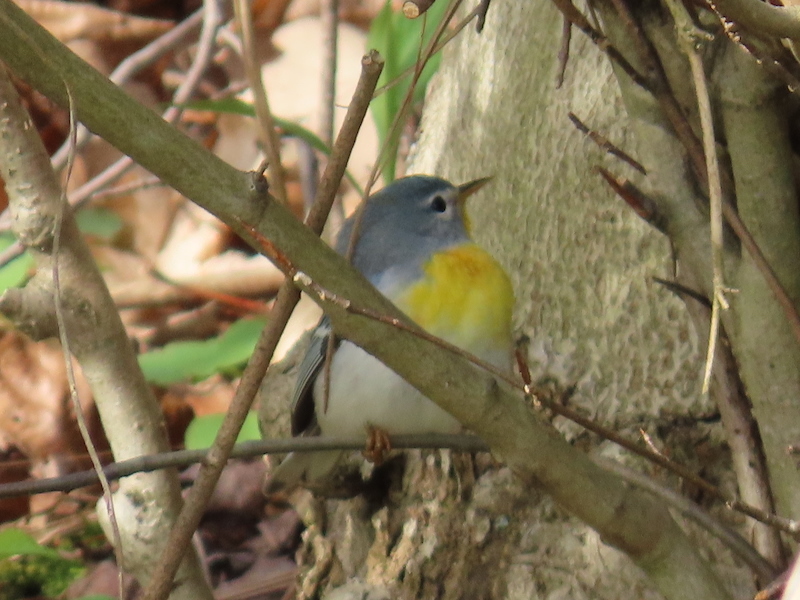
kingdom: Animalia
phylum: Chordata
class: Aves
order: Passeriformes
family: Parulidae
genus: Setophaga
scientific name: Setophaga americana
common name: Northern parula
